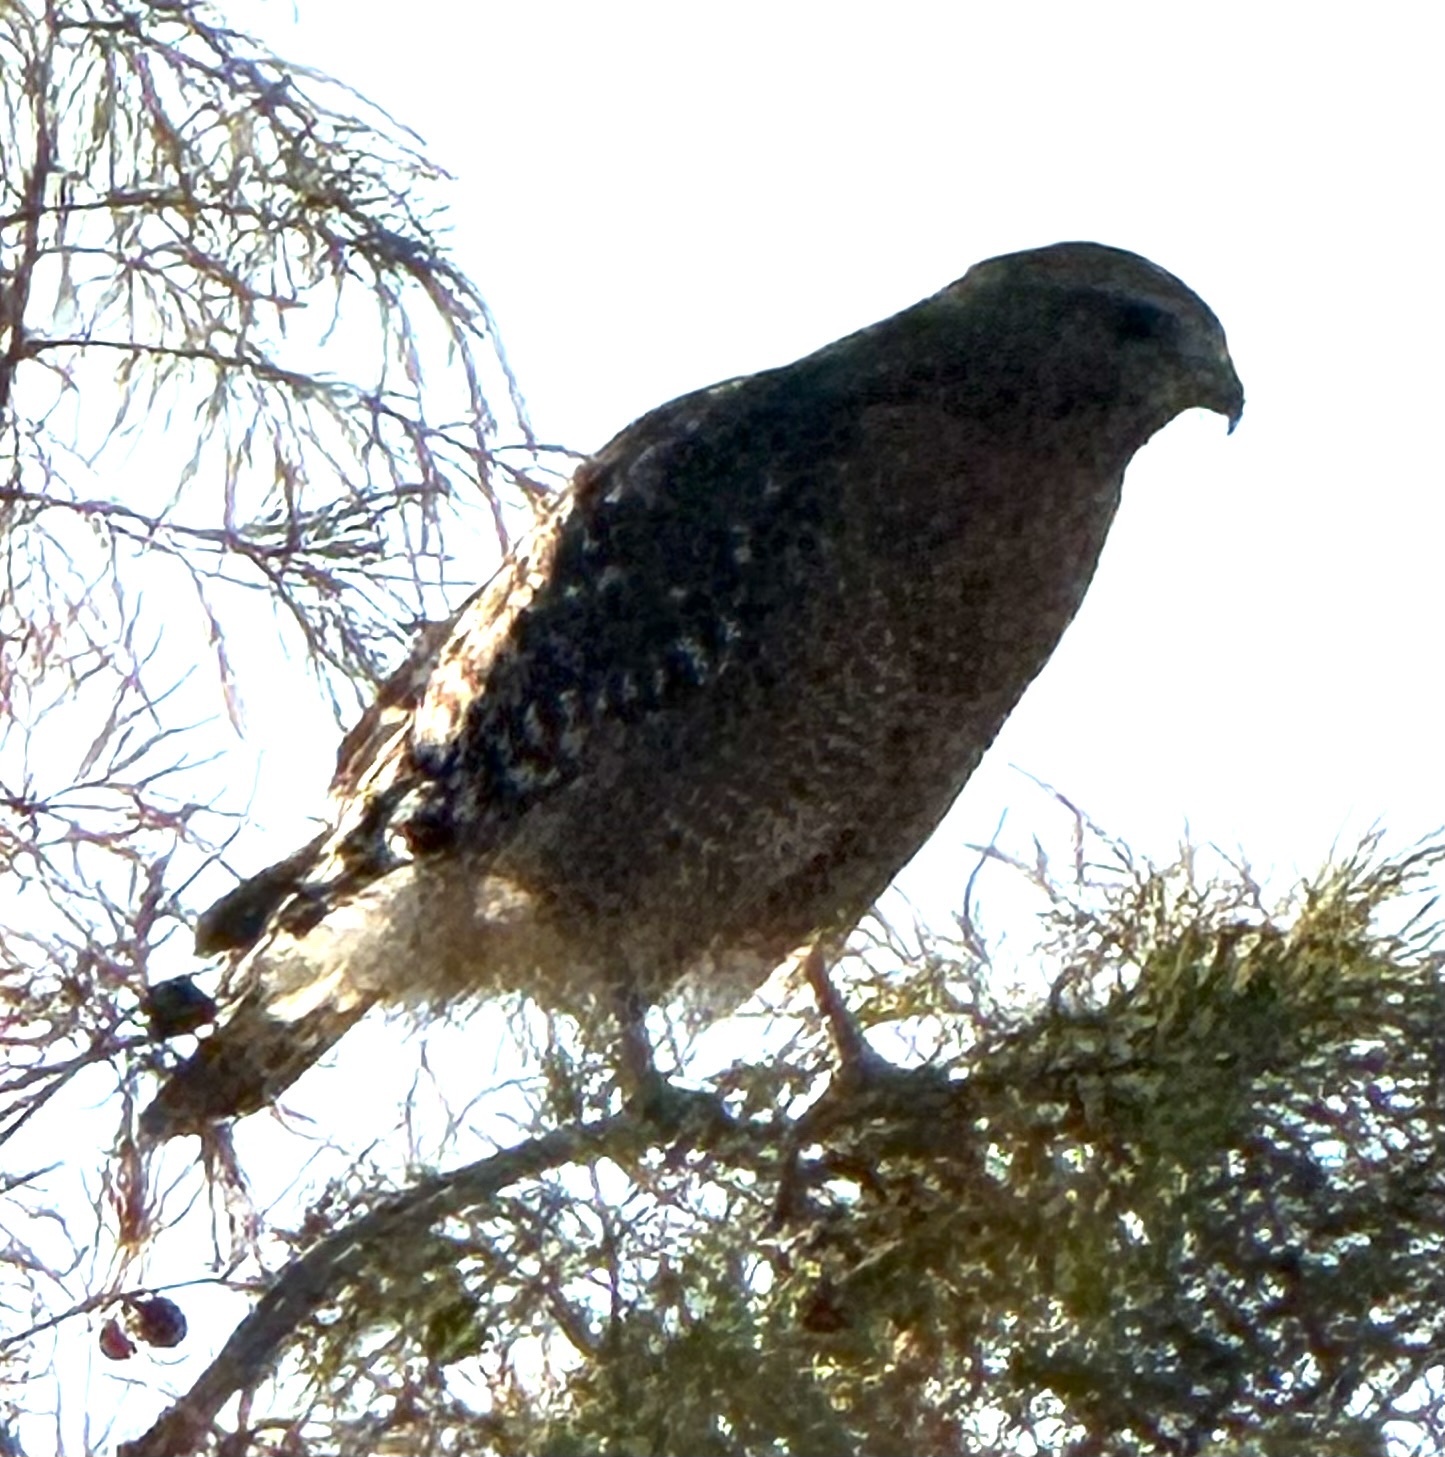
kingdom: Animalia
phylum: Chordata
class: Aves
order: Accipitriformes
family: Accipitridae
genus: Buteo
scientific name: Buteo lineatus
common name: Red-shouldered hawk
